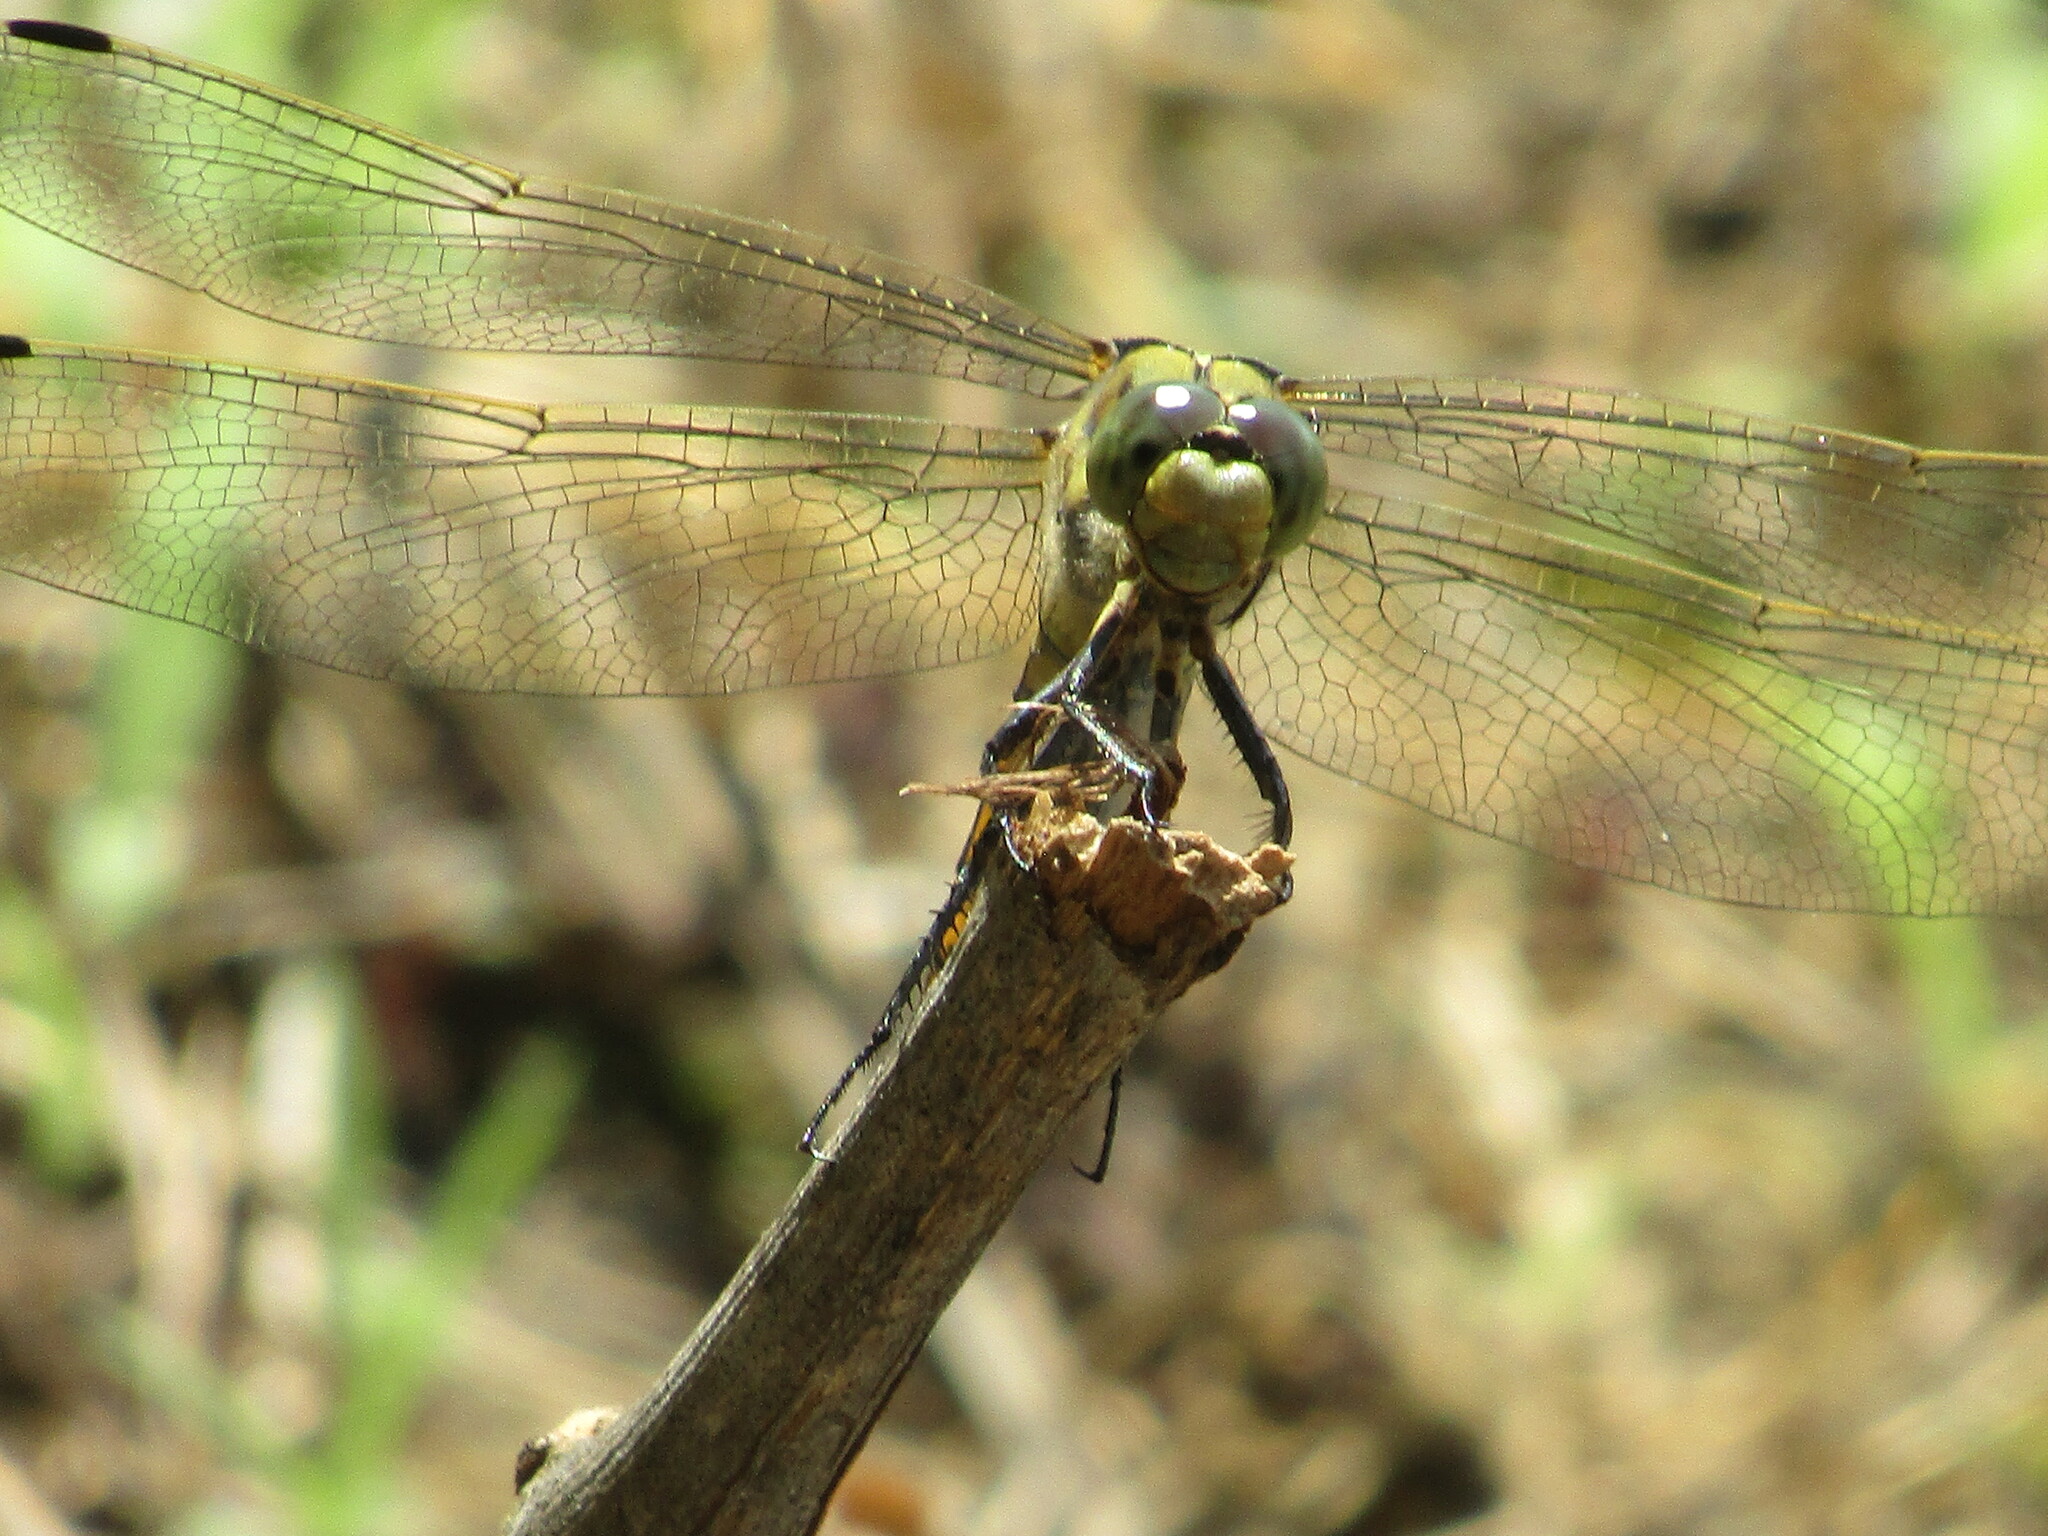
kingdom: Animalia
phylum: Arthropoda
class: Insecta
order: Odonata
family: Libellulidae
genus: Orthetrum
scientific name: Orthetrum cancellatum
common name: Black-tailed skimmer
